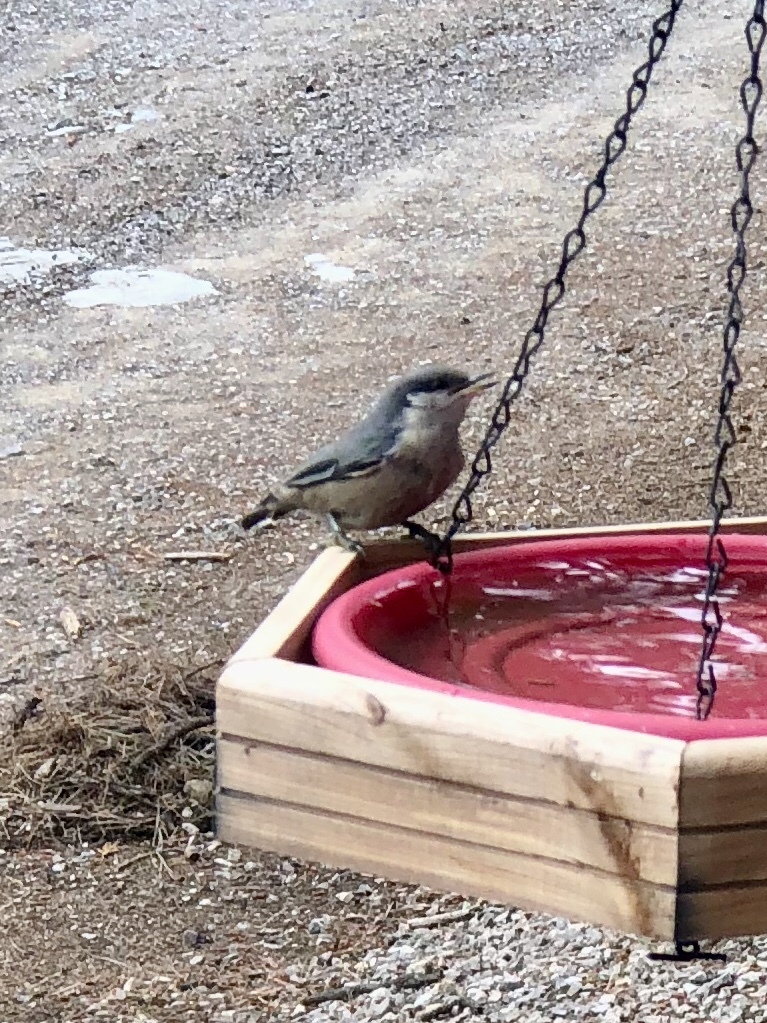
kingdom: Animalia
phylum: Chordata
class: Aves
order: Passeriformes
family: Sittidae
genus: Sitta
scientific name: Sitta pygmaea
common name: Pygmy nuthatch
